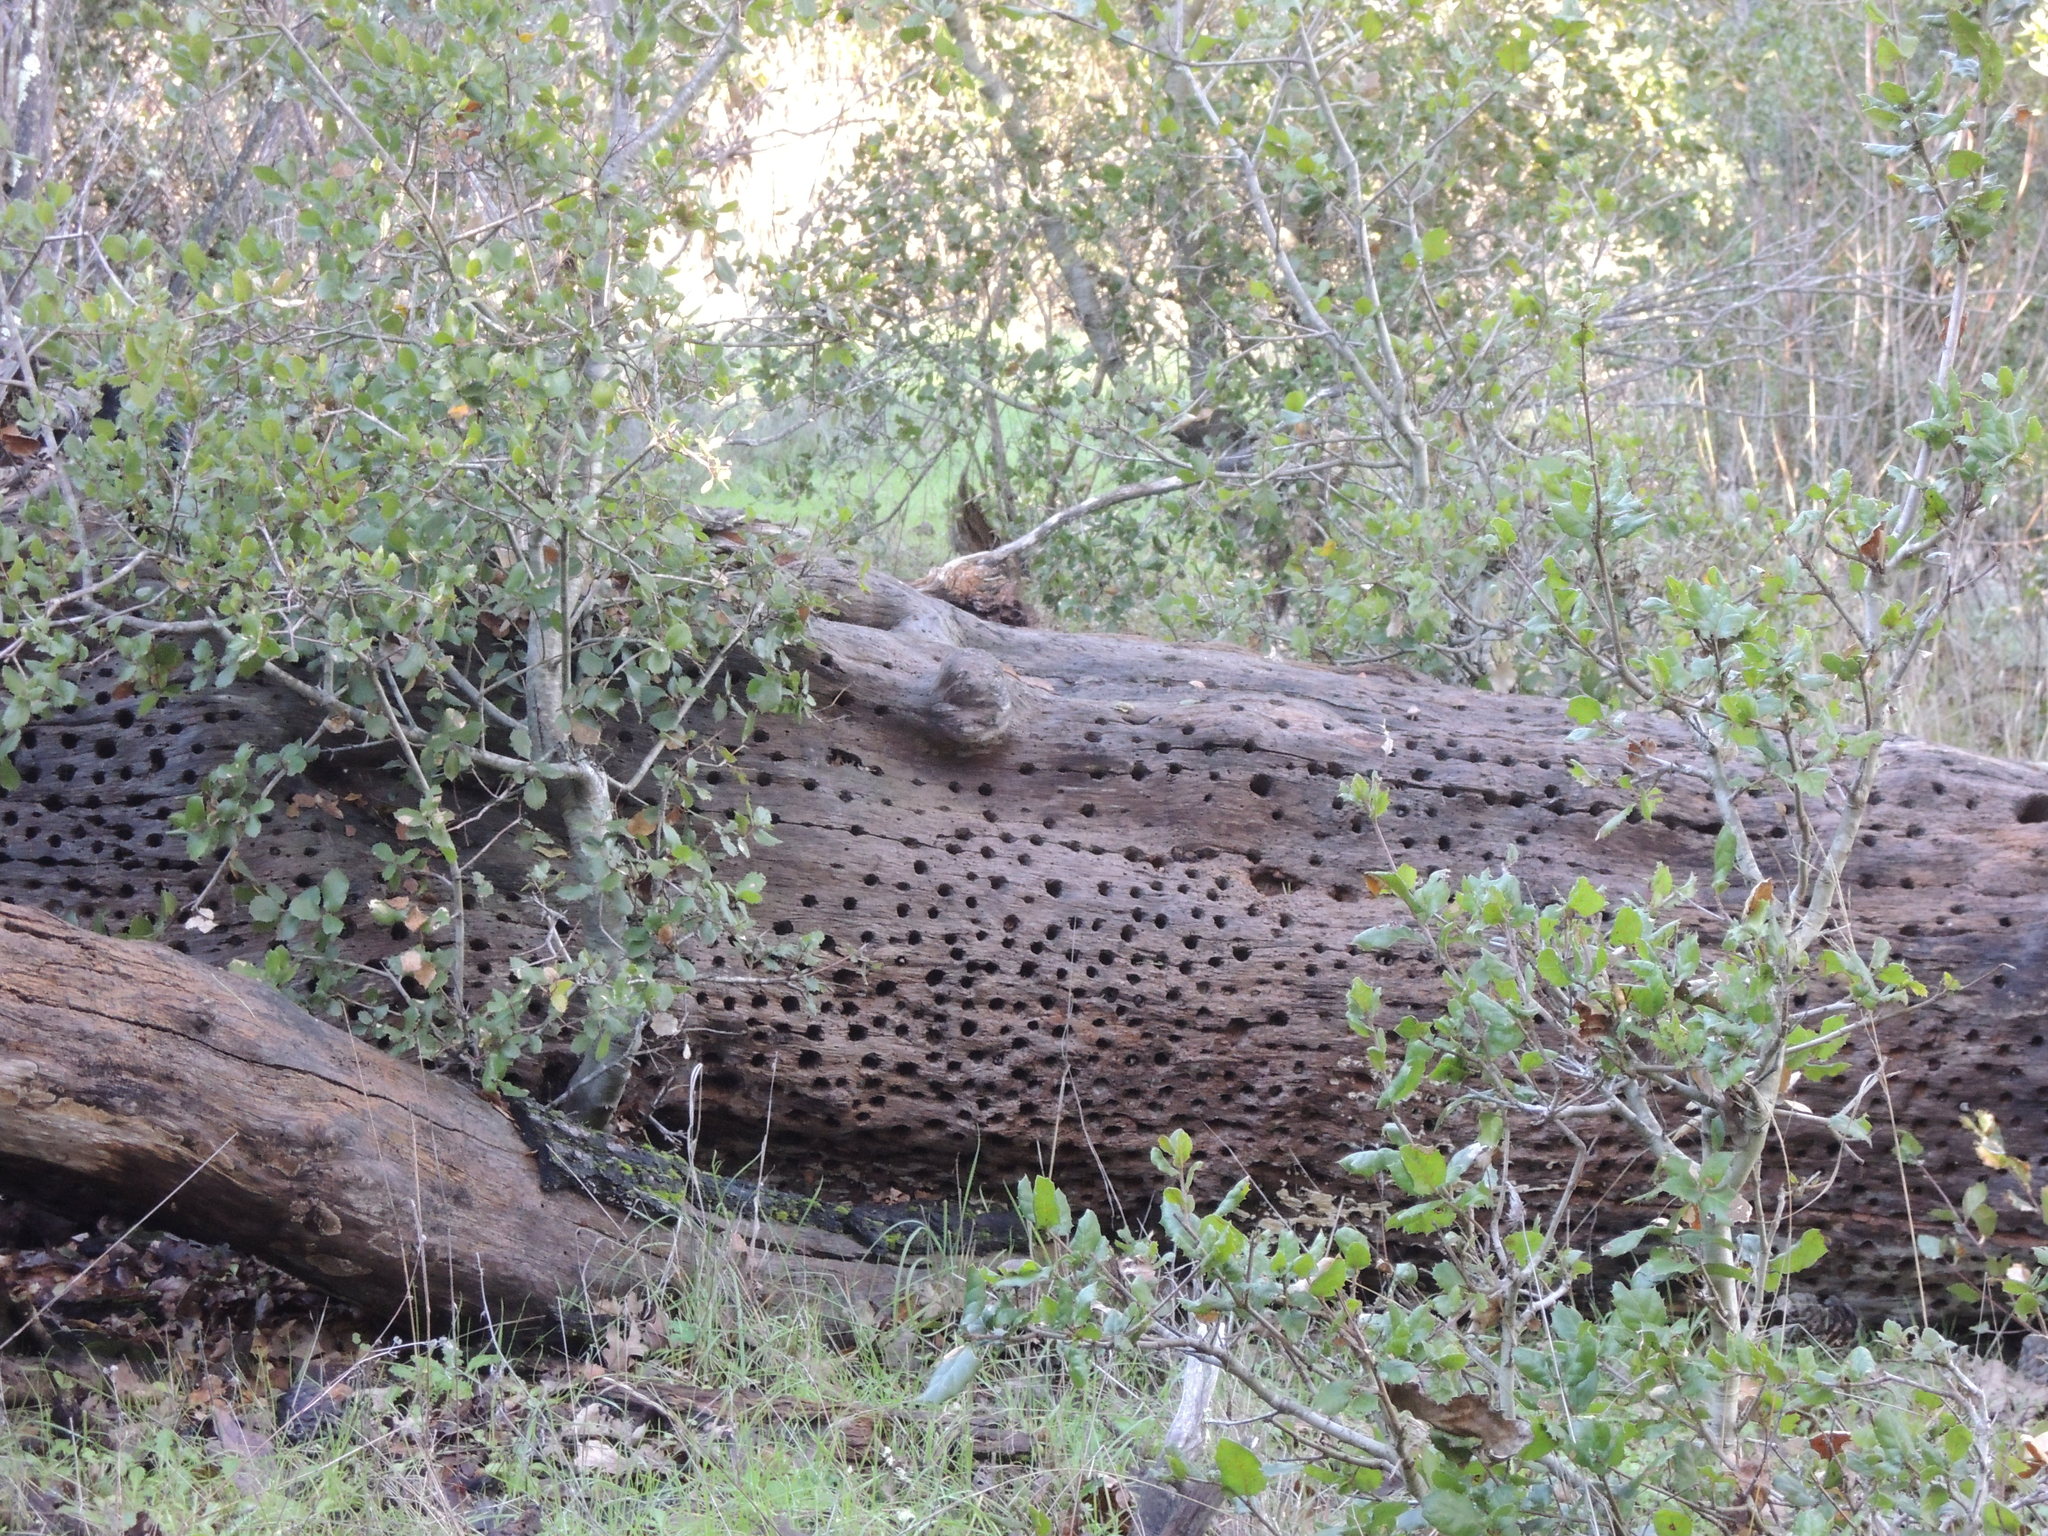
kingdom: Animalia
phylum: Chordata
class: Aves
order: Piciformes
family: Picidae
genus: Melanerpes
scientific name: Melanerpes formicivorus
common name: Acorn woodpecker
